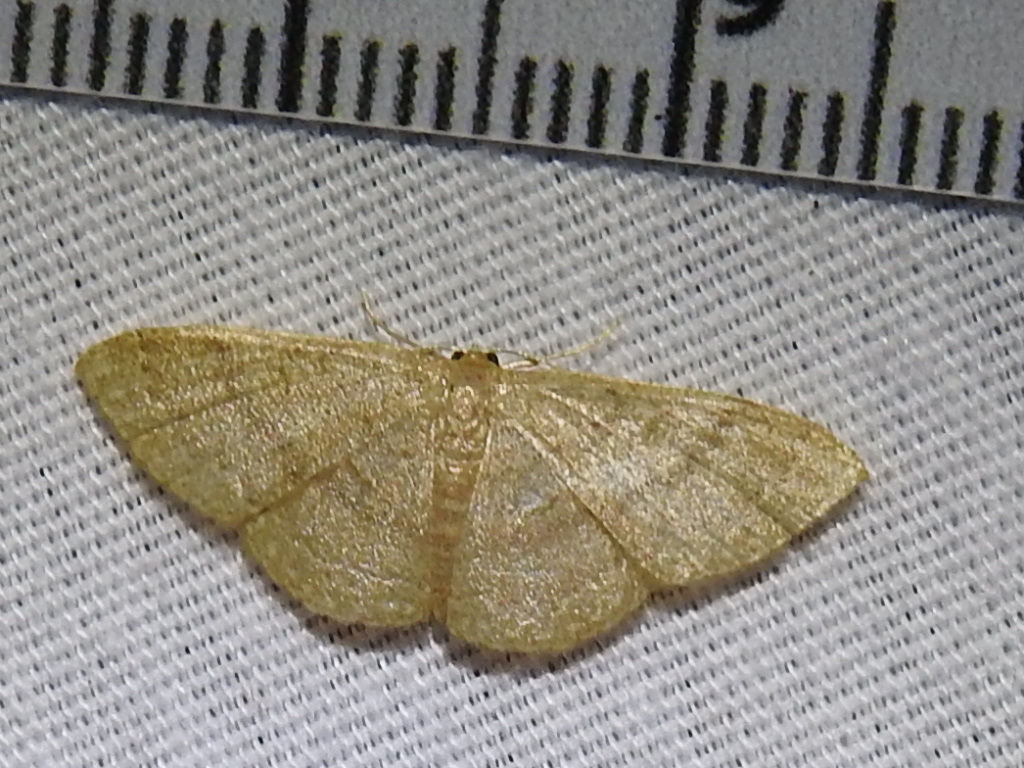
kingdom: Animalia
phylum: Arthropoda
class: Insecta
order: Lepidoptera
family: Geometridae
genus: Pleuroprucha
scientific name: Pleuroprucha insulsaria
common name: Common tan wave
